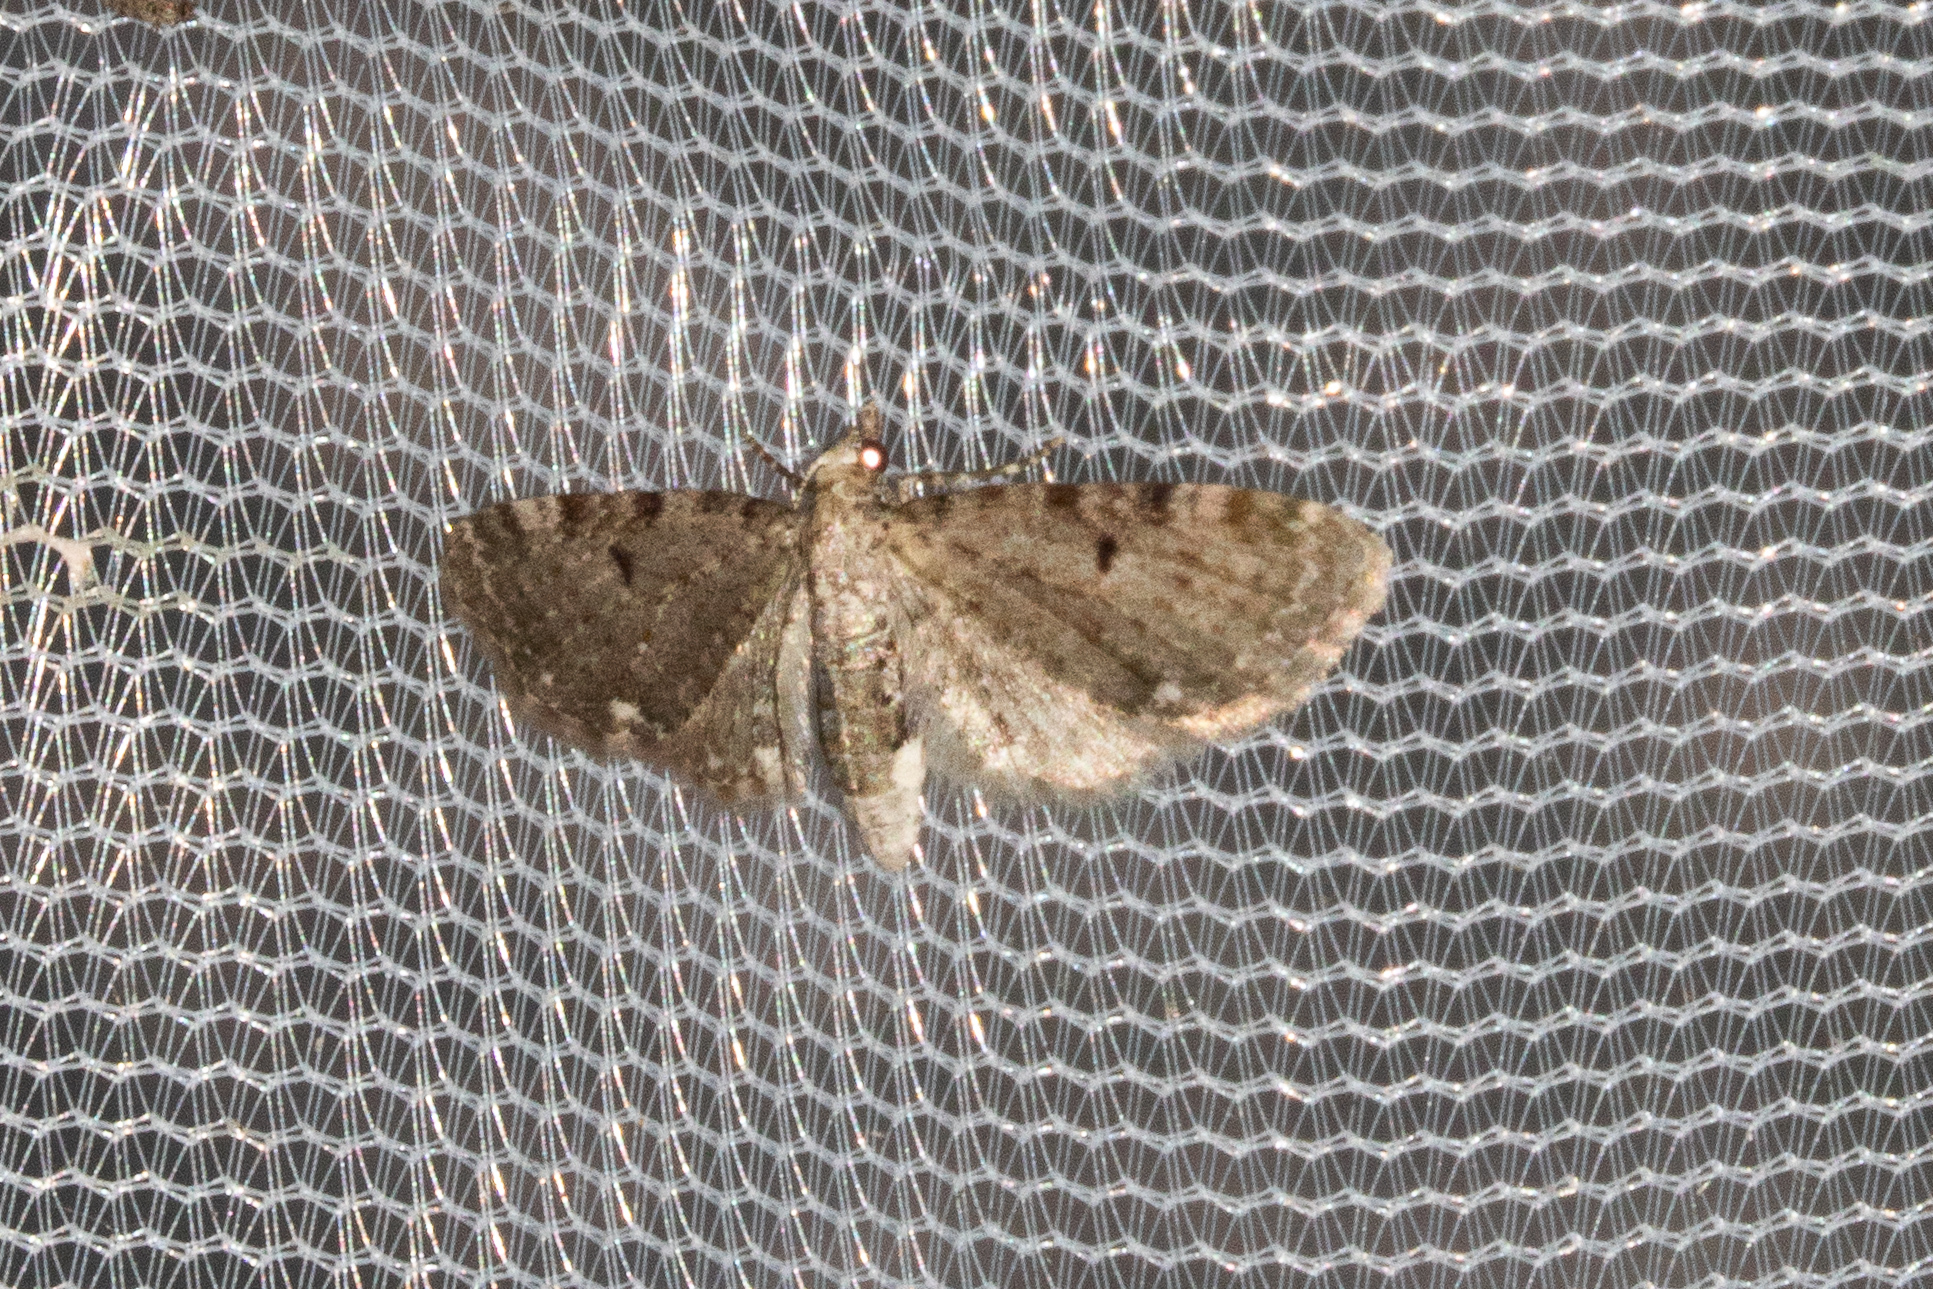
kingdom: Animalia
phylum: Arthropoda
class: Insecta
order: Lepidoptera
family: Geometridae
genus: Eupithecia
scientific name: Eupithecia miserulata
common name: Common eupithecia
